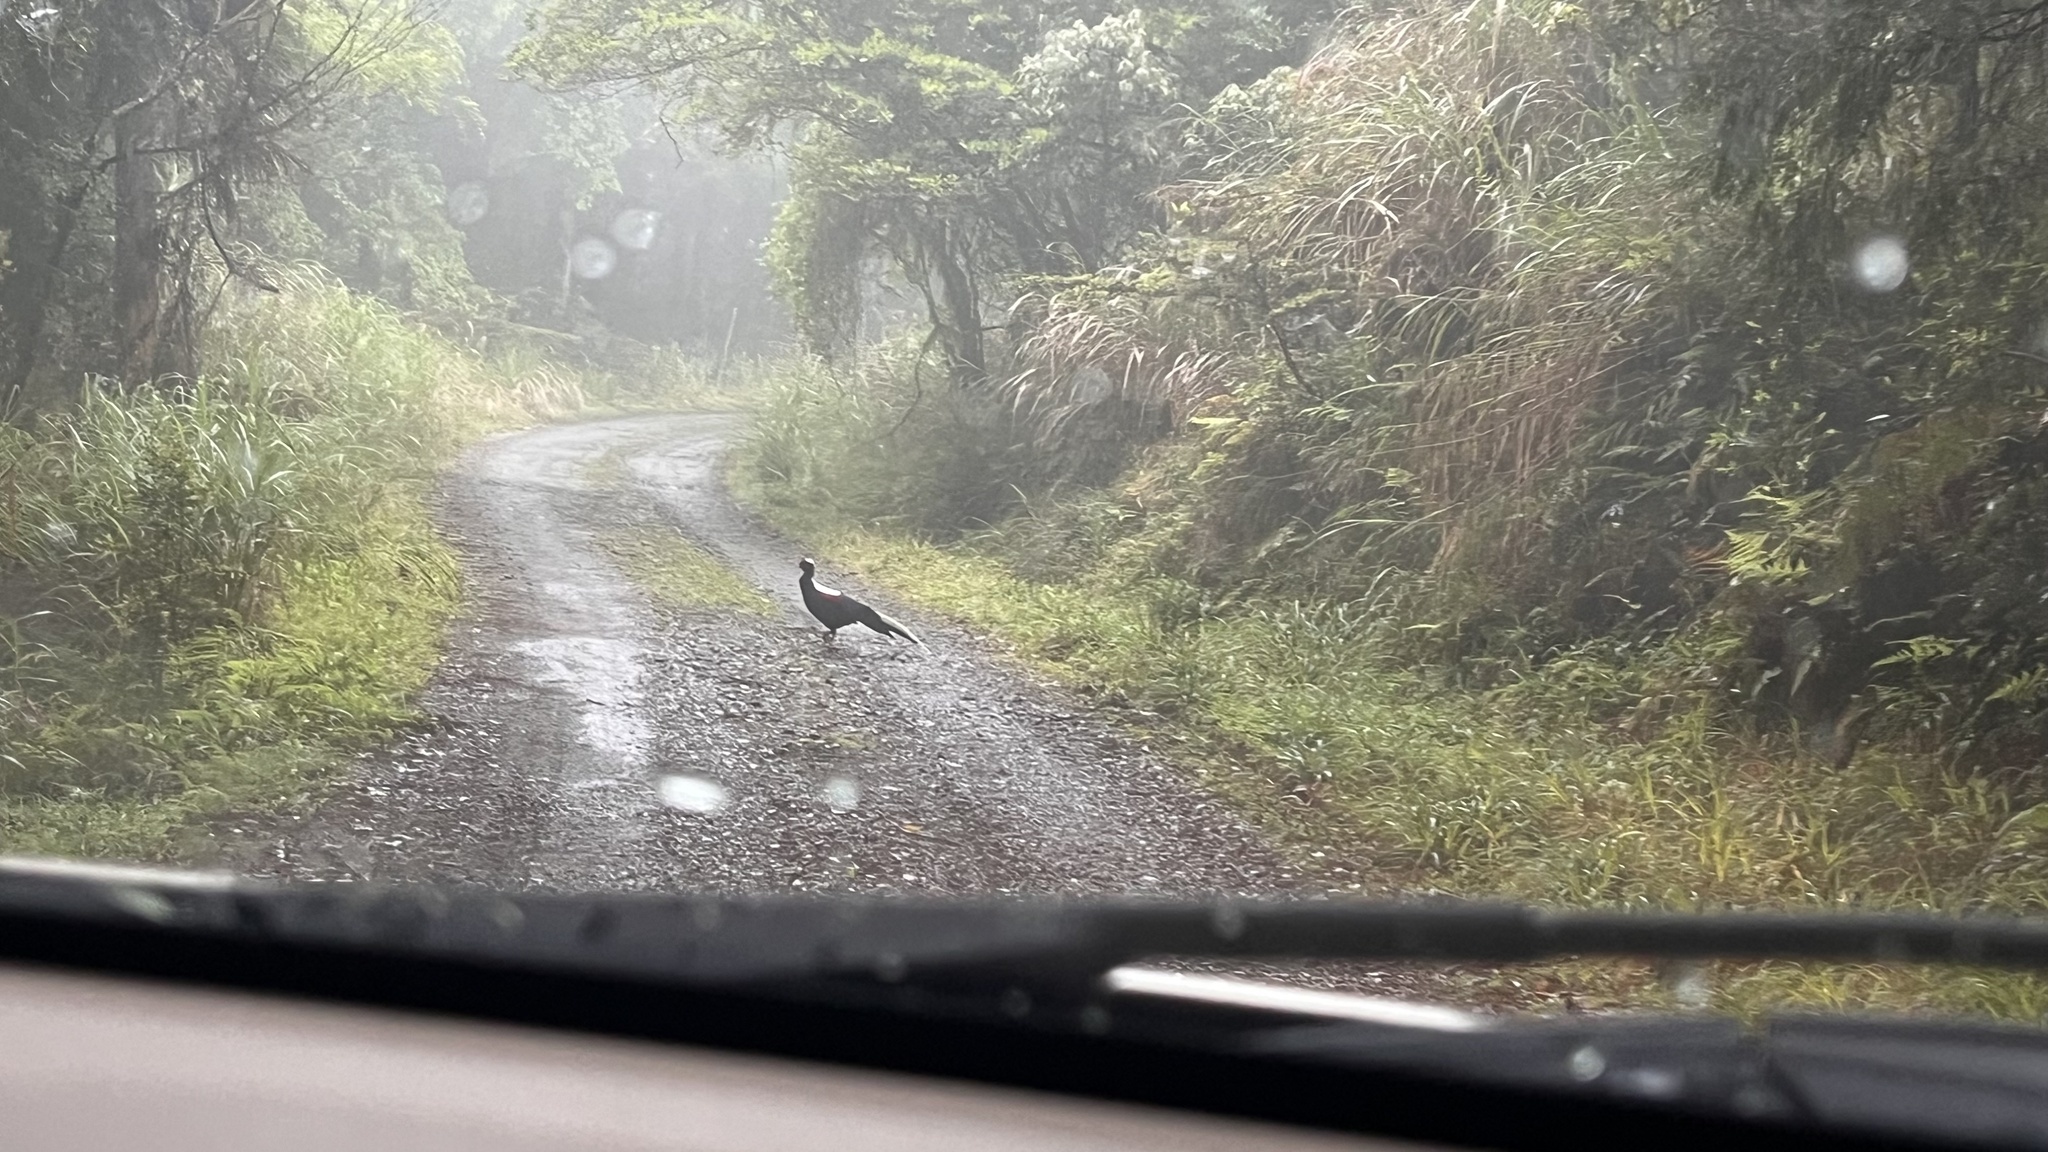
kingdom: Animalia
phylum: Chordata
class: Aves
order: Galliformes
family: Phasianidae
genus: Lophura
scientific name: Lophura swinhoii
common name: Swinhoe's pheasant
